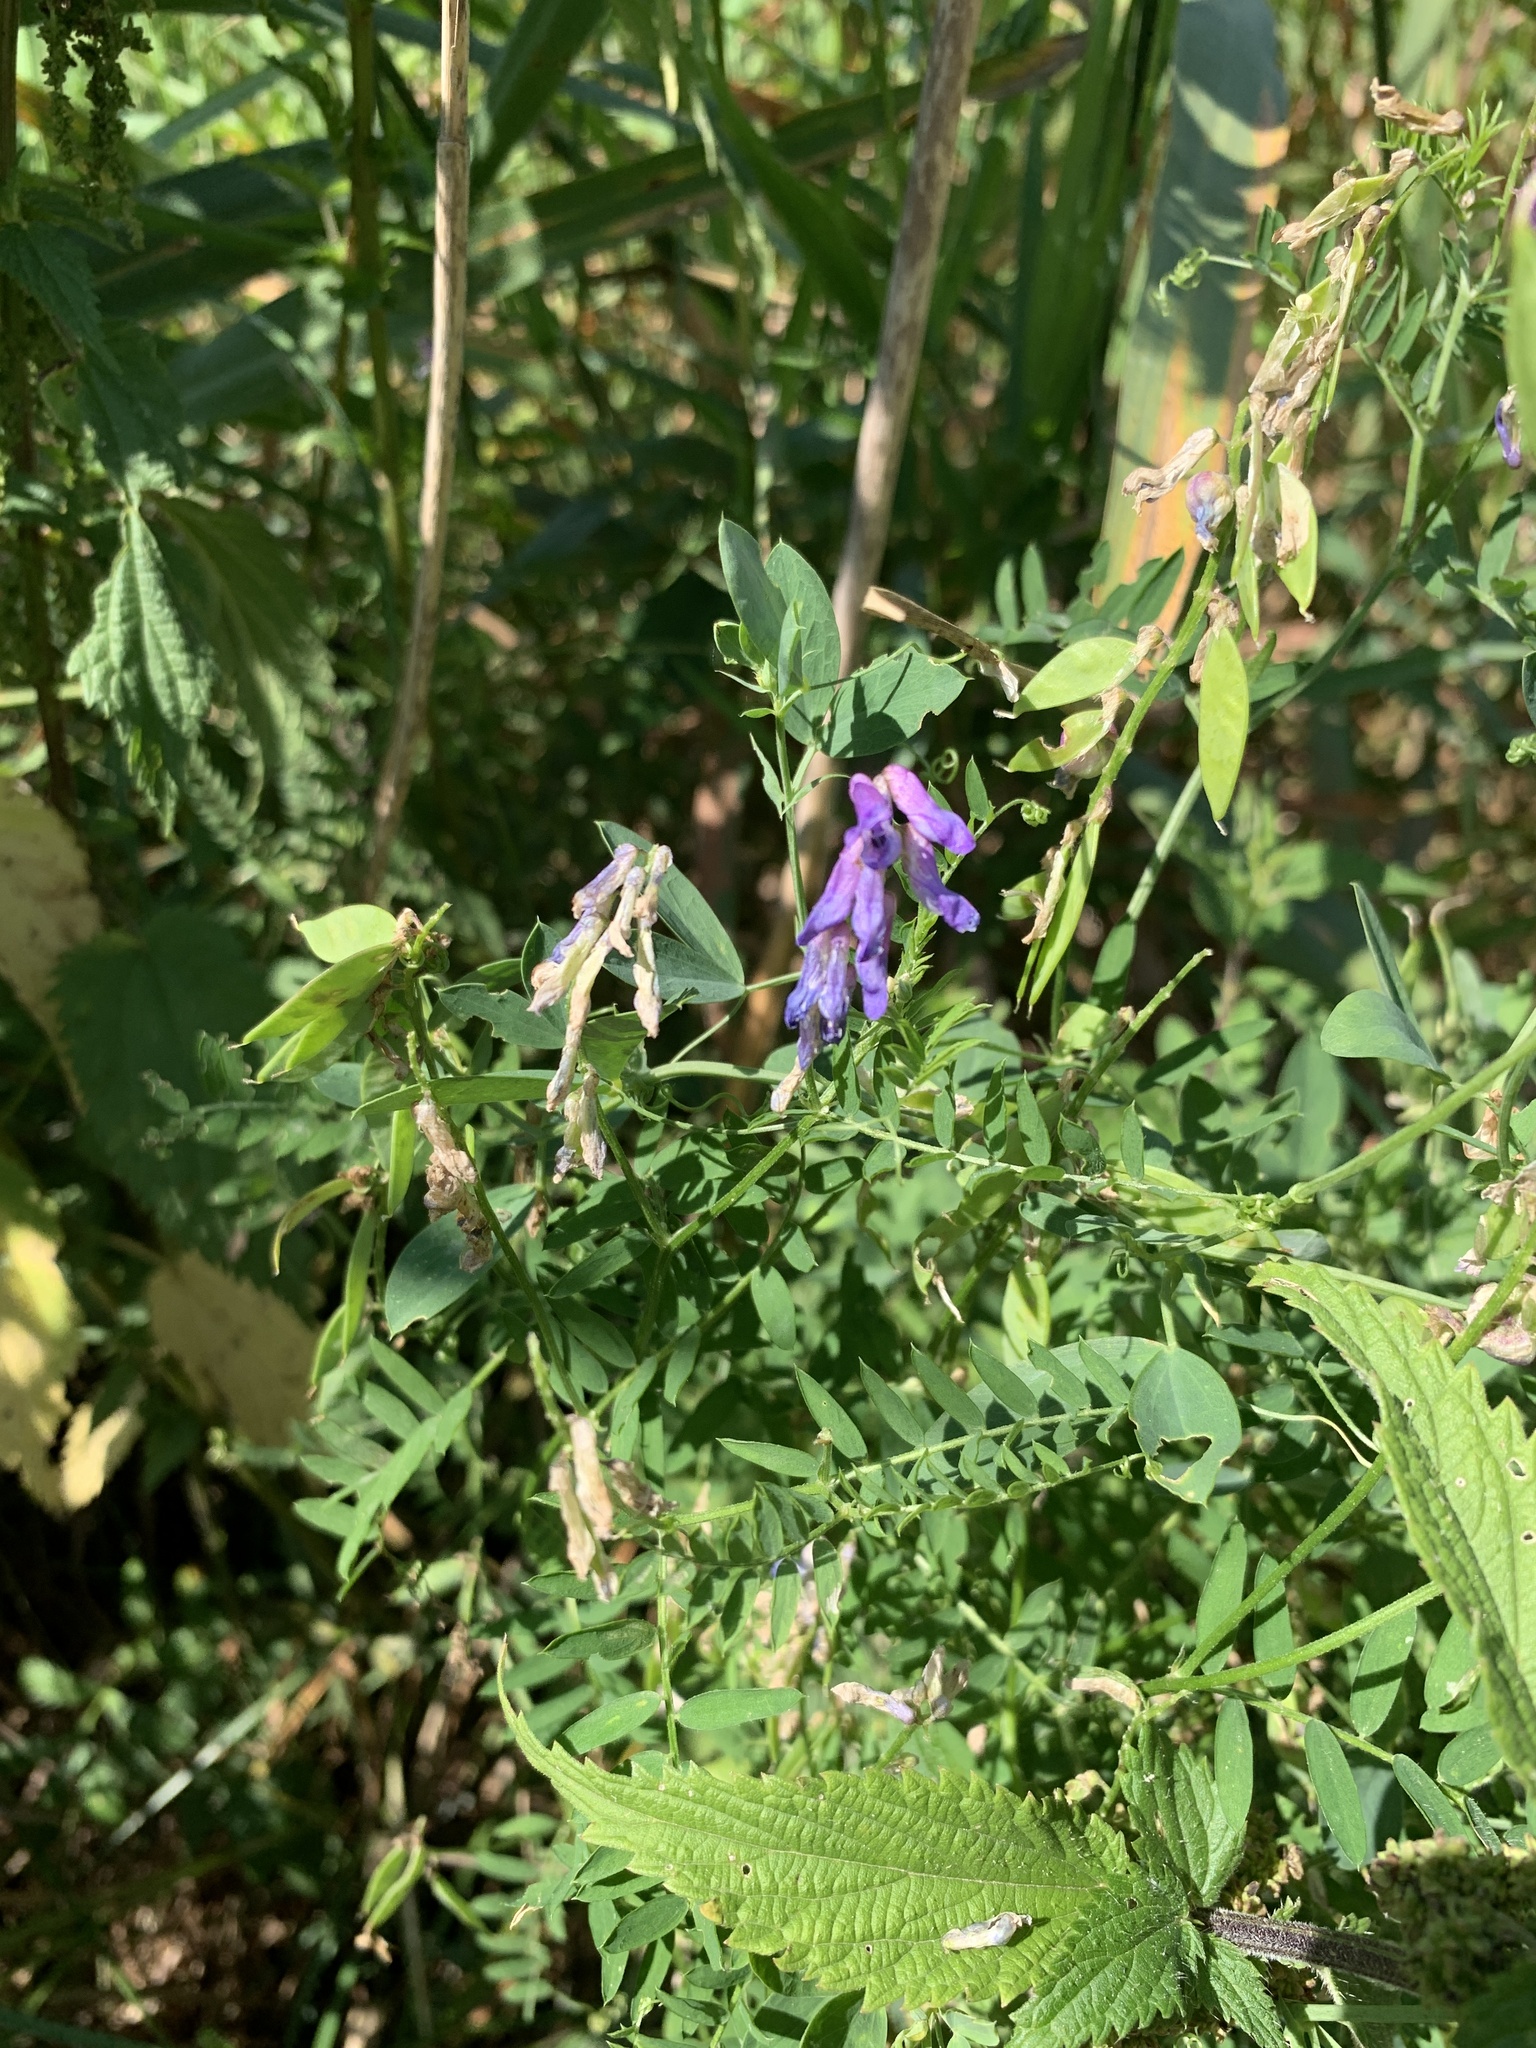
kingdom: Plantae
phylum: Tracheophyta
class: Magnoliopsida
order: Fabales
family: Fabaceae
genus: Vicia
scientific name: Vicia cracca
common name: Bird vetch
